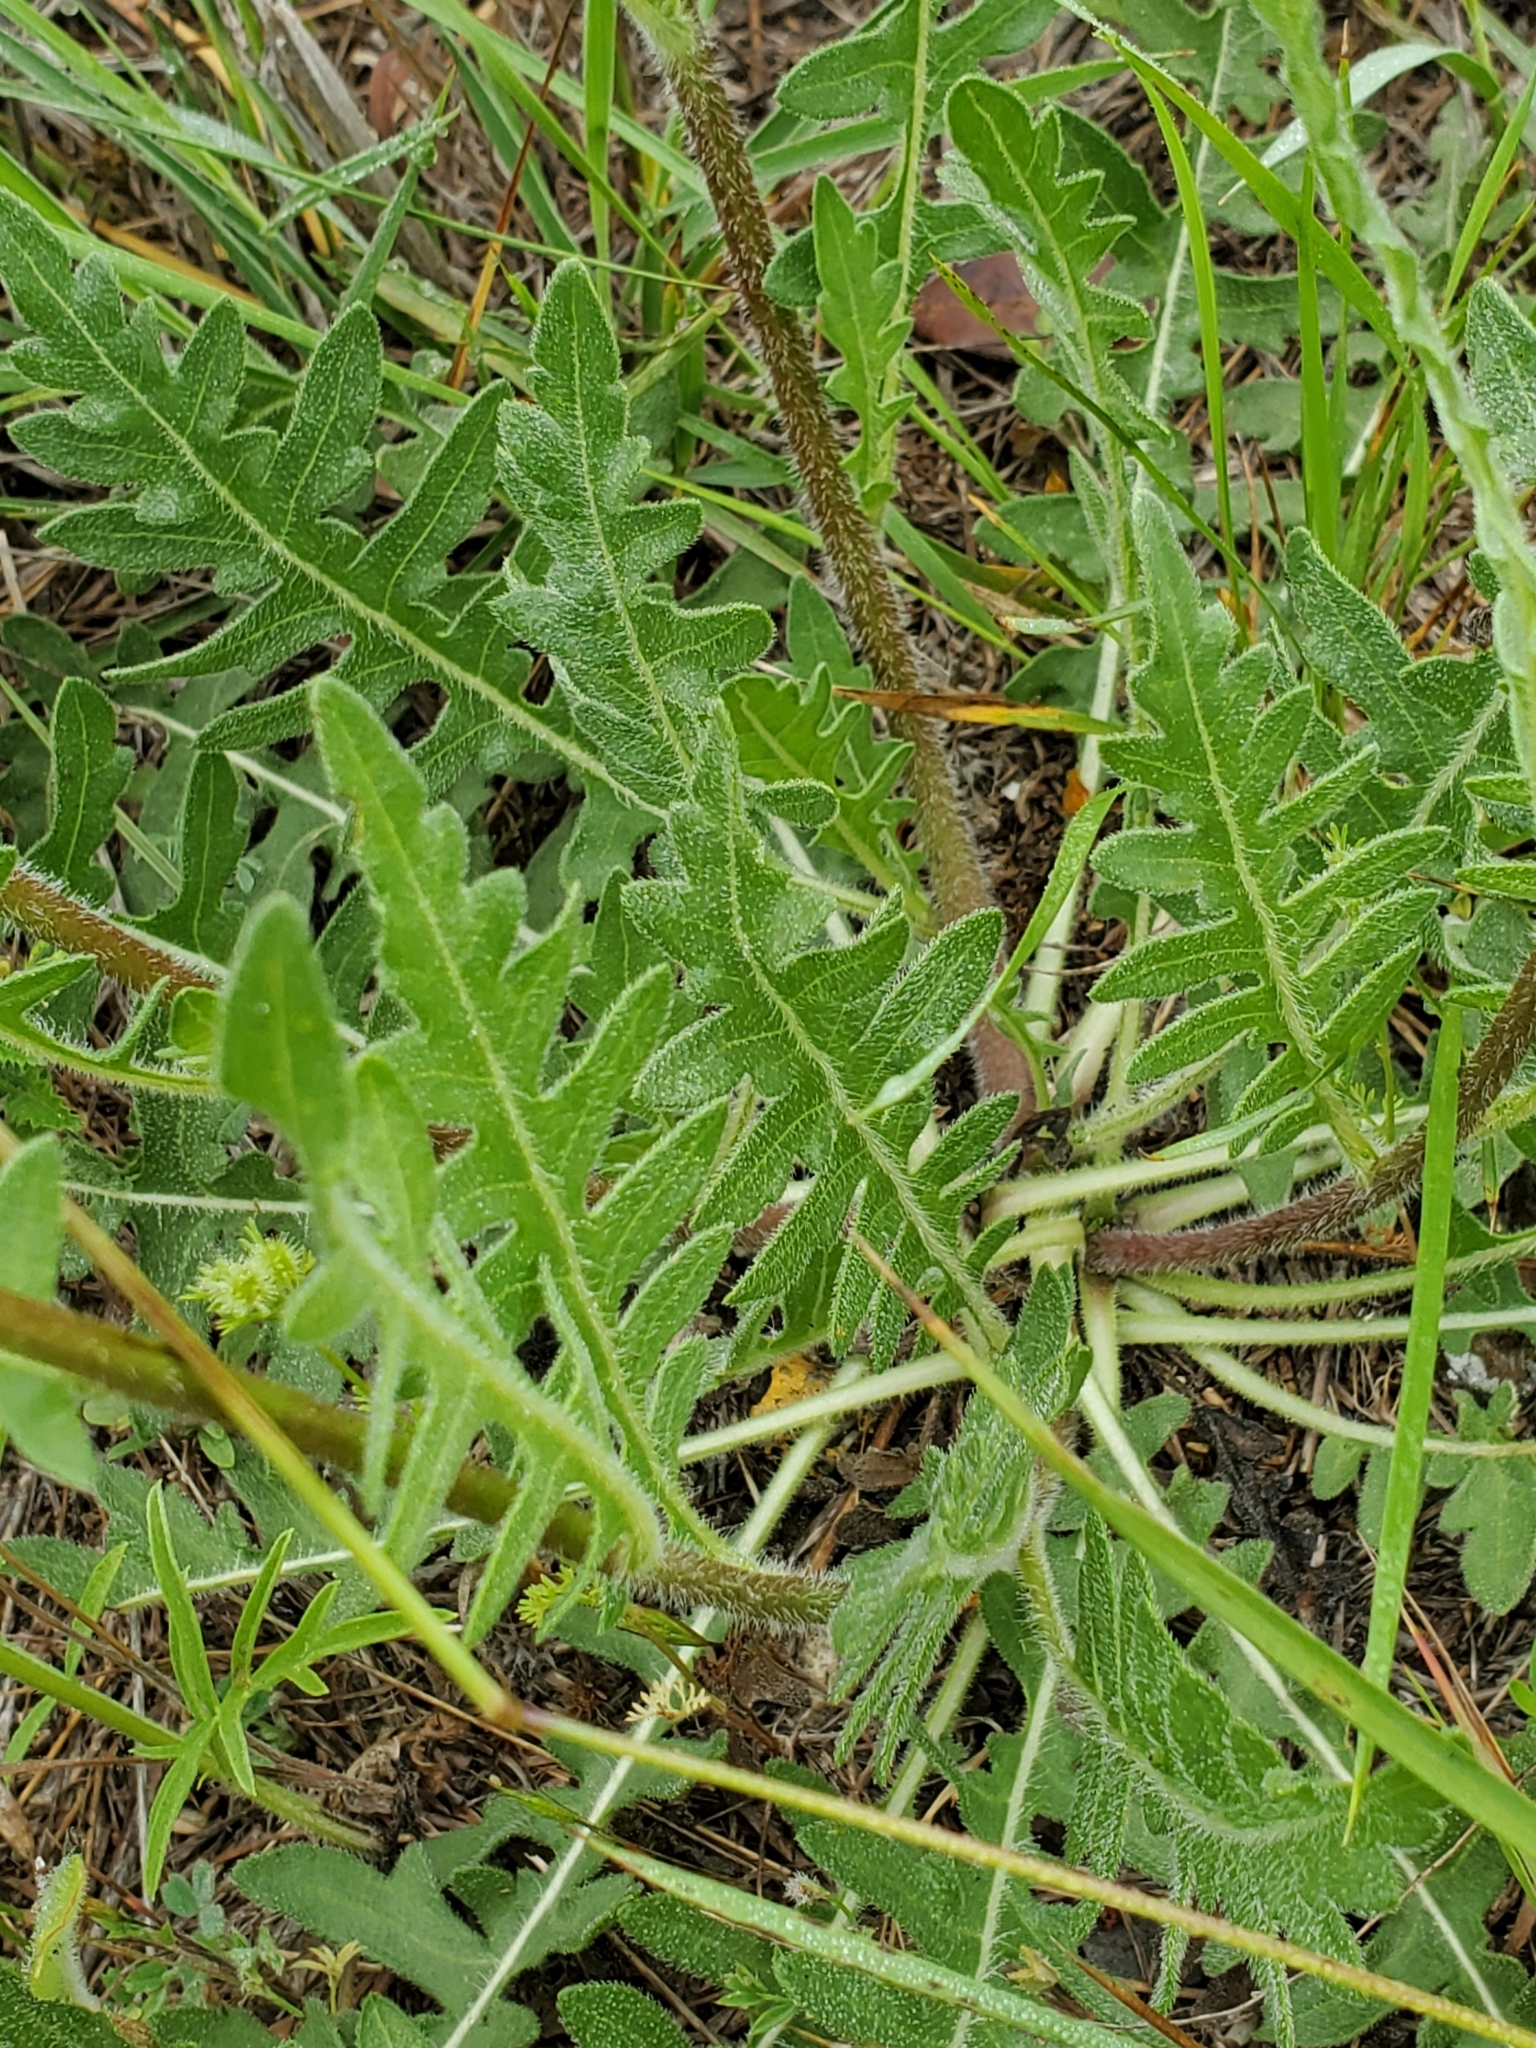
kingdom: Plantae
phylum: Tracheophyta
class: Magnoliopsida
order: Asterales
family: Asteraceae
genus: Engelmannia
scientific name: Engelmannia peristenia
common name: Engelmann's daisy
